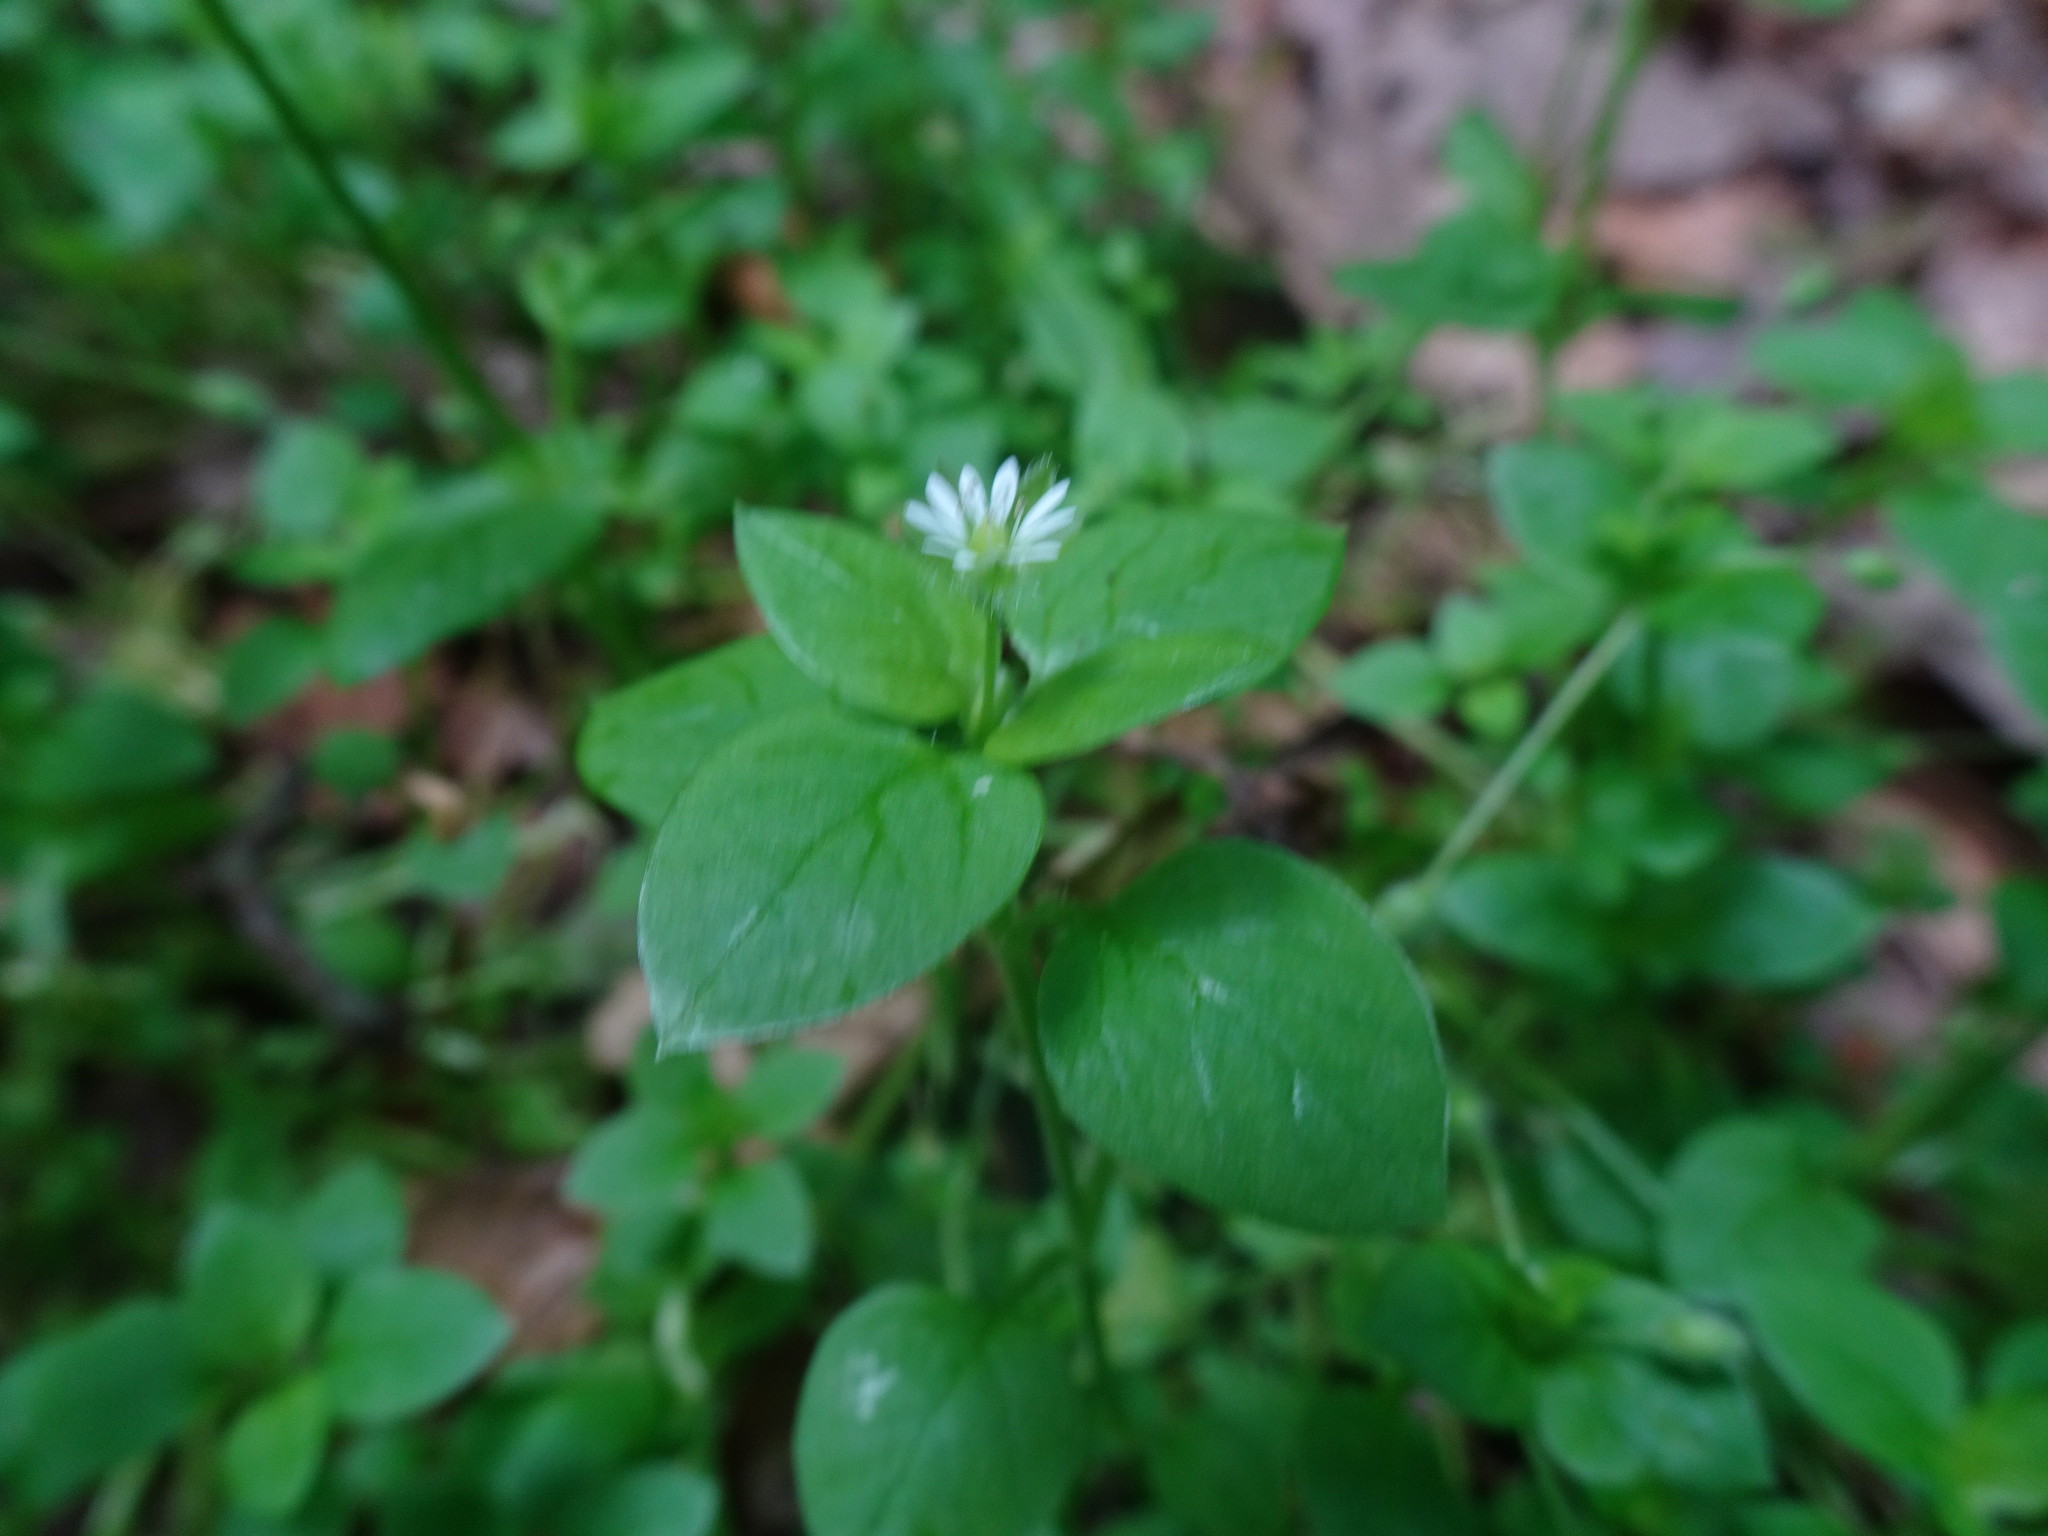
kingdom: Plantae
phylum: Tracheophyta
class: Magnoliopsida
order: Caryophyllales
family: Caryophyllaceae
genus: Stellaria
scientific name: Stellaria media
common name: Common chickweed
